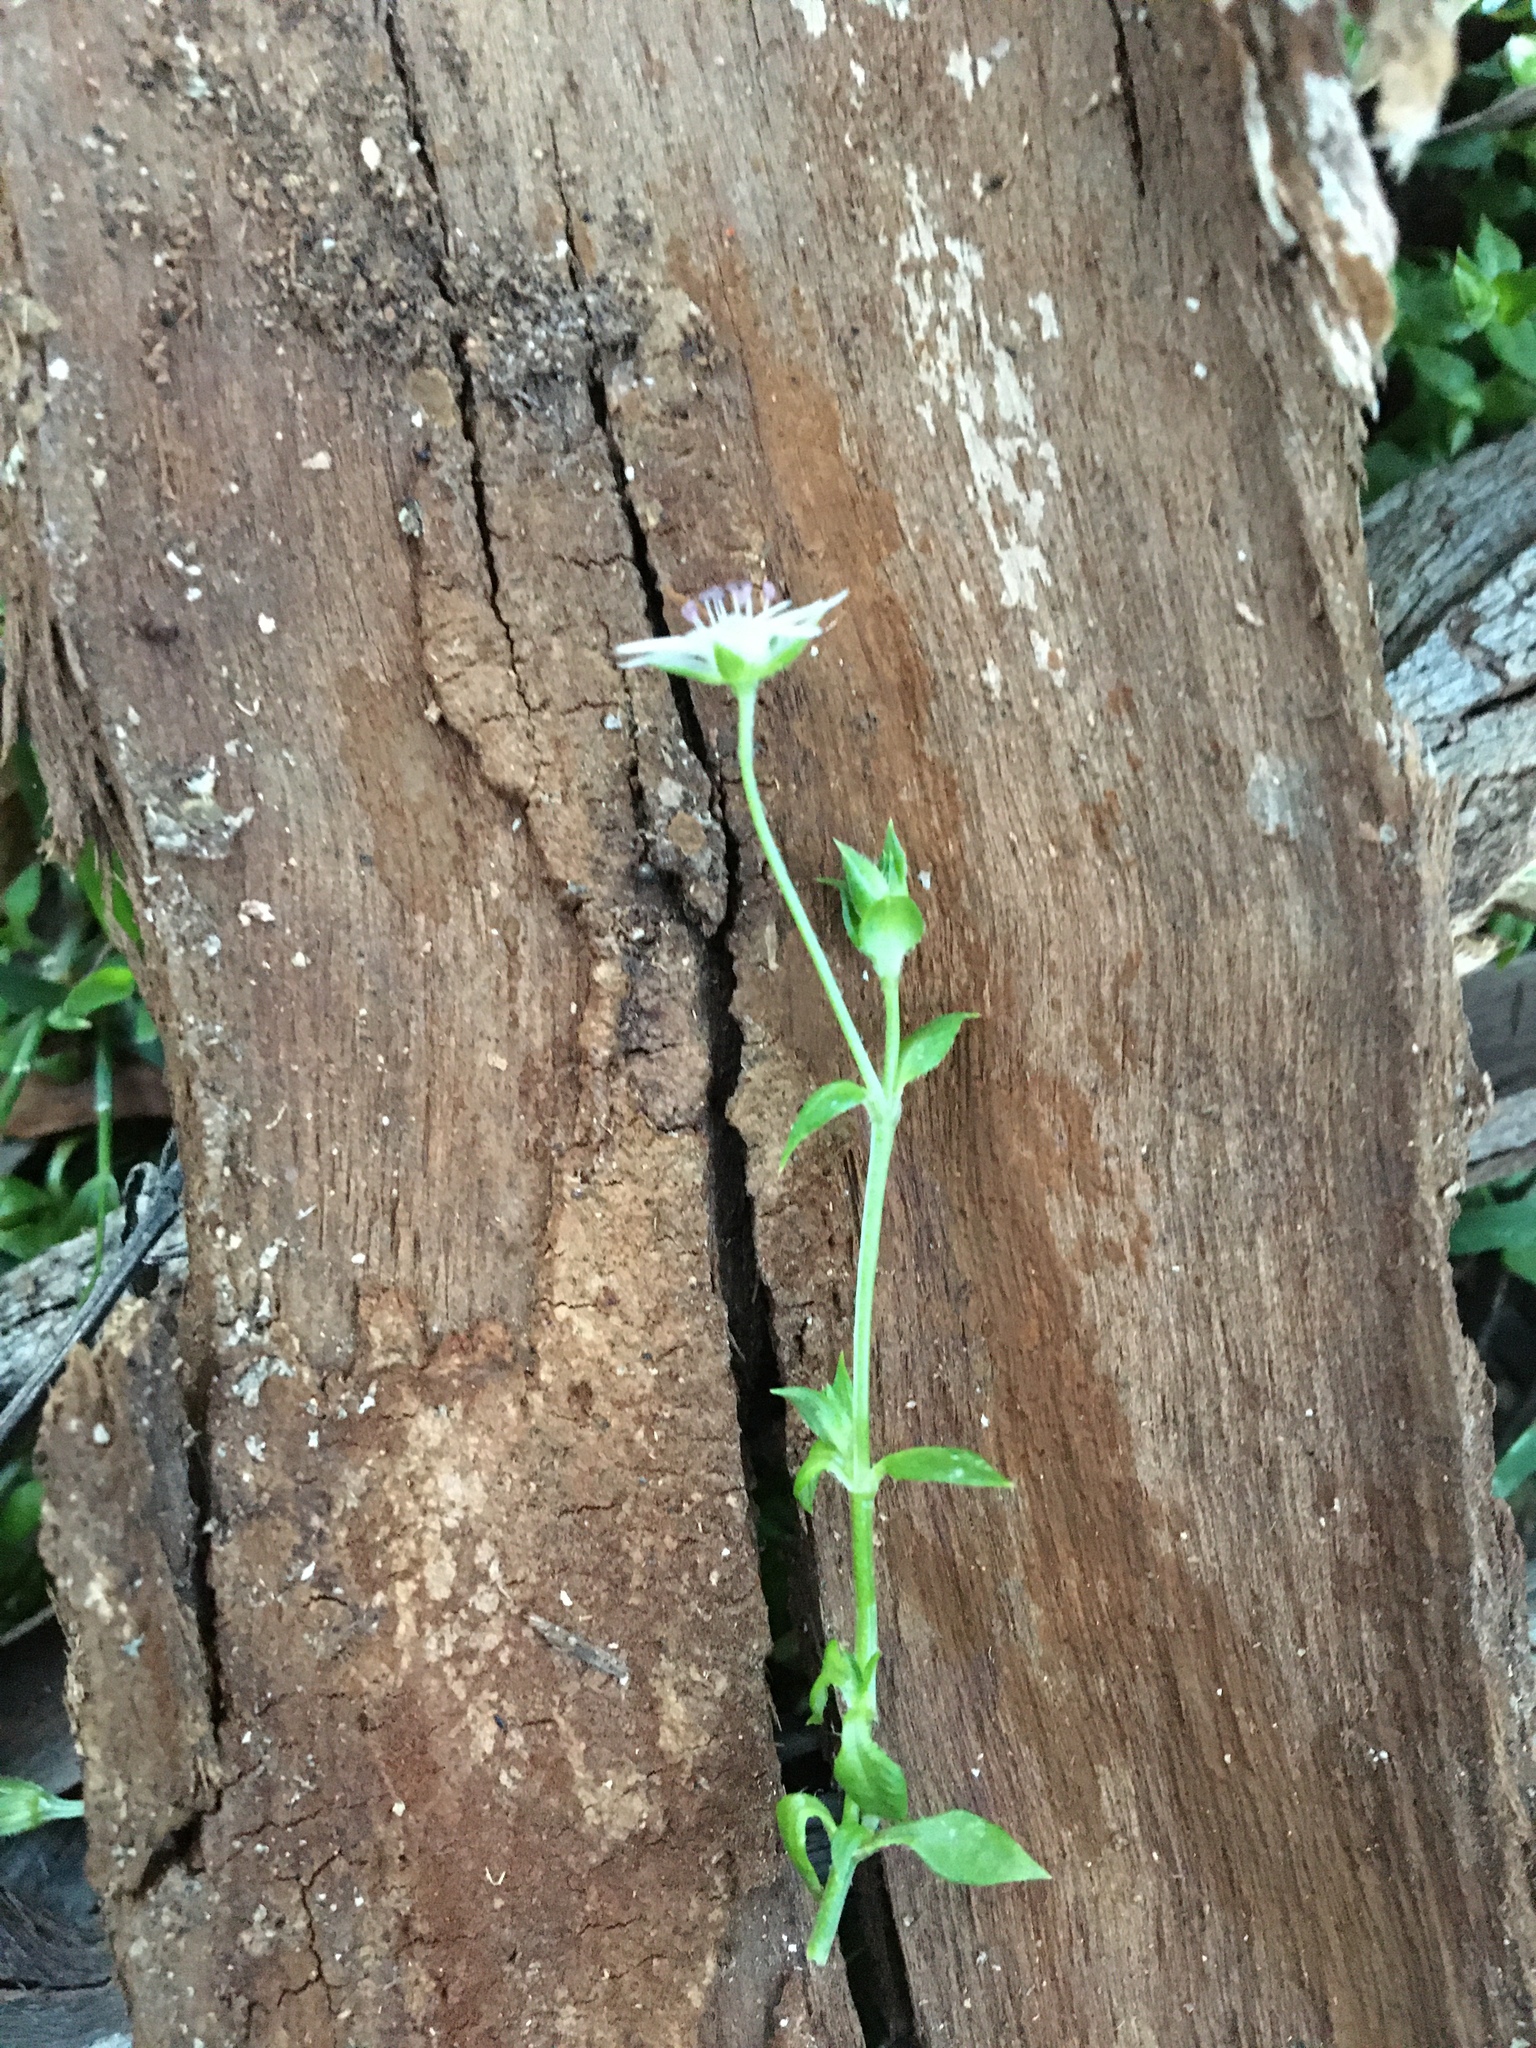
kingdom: Plantae
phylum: Tracheophyta
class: Magnoliopsida
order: Caryophyllales
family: Caryophyllaceae
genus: Stellaria
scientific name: Stellaria flaccida
